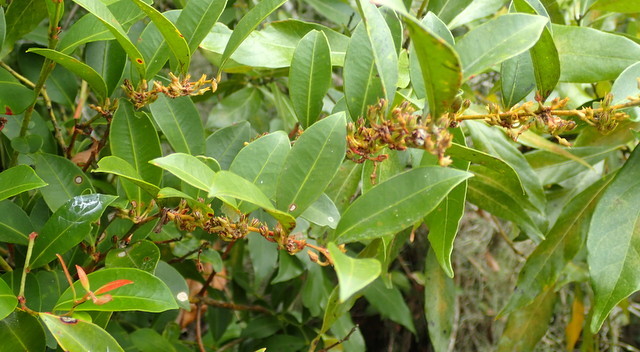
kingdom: Plantae
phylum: Tracheophyta
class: Magnoliopsida
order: Ericales
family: Ericaceae
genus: Lyonia
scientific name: Lyonia lucida
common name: Fetterbush
